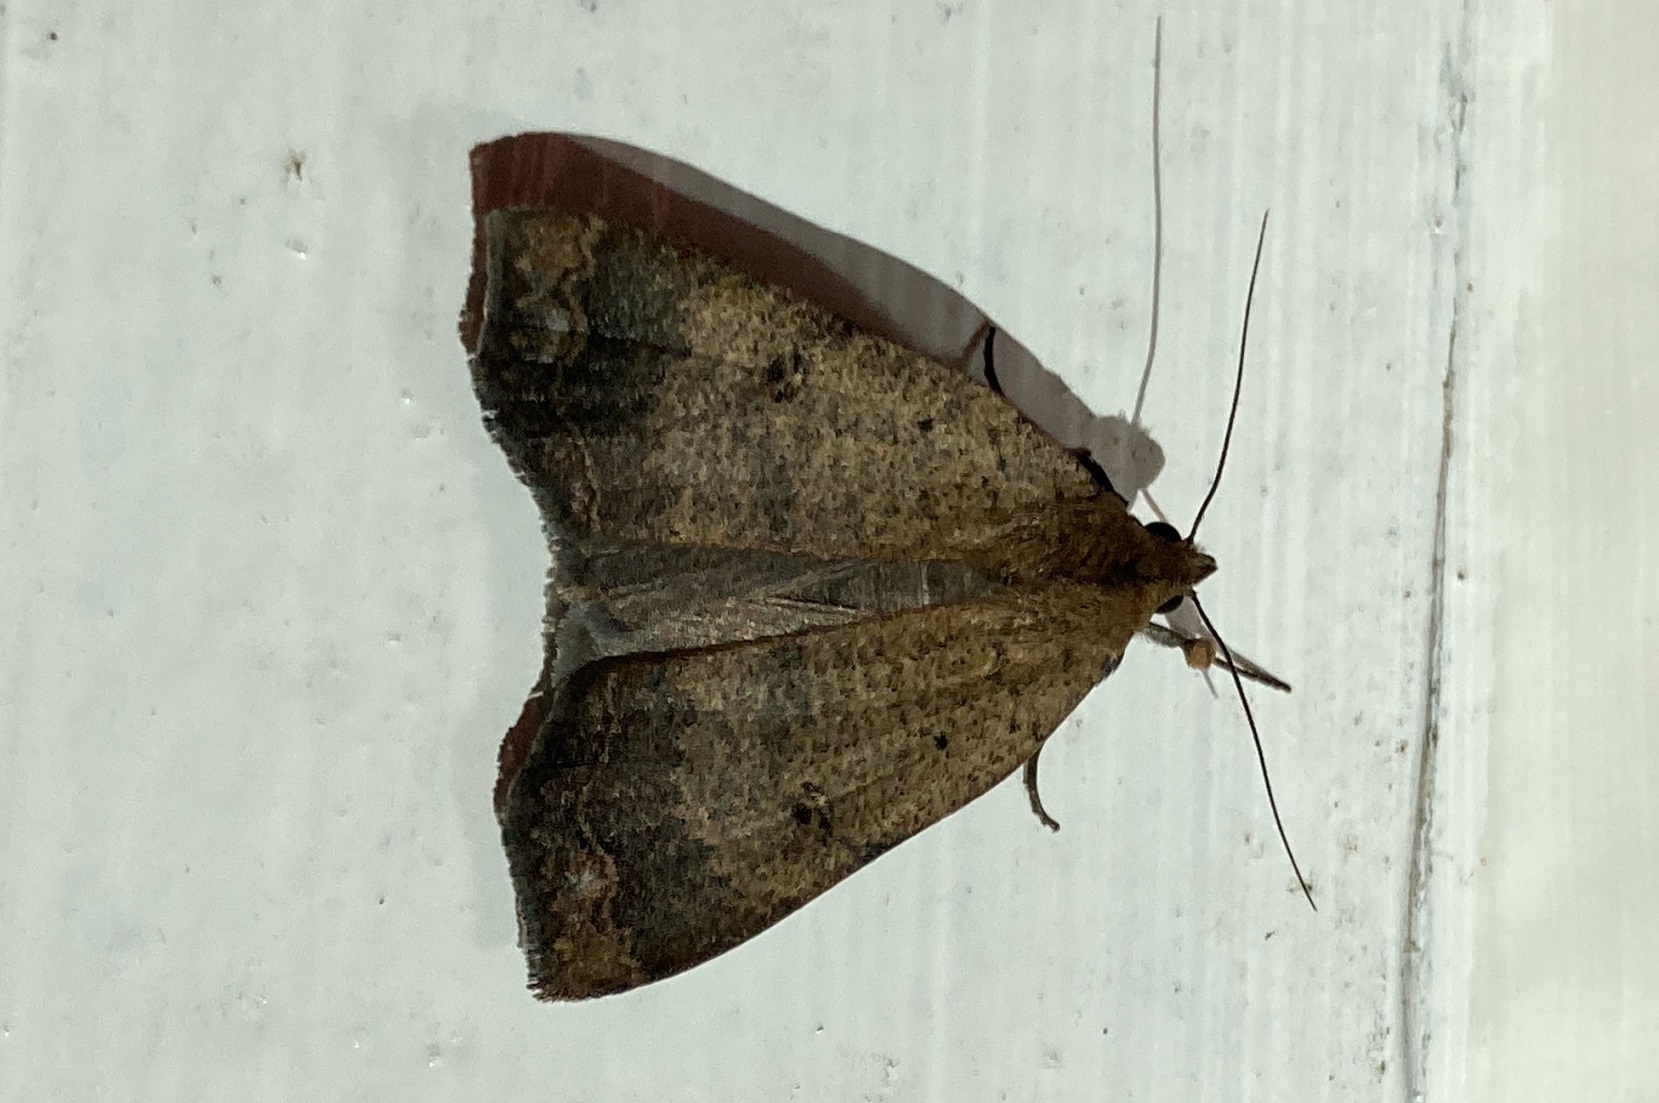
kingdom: Animalia
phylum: Arthropoda
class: Insecta
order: Lepidoptera
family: Erebidae
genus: Pyrgion
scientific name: Pyrgion repanda
